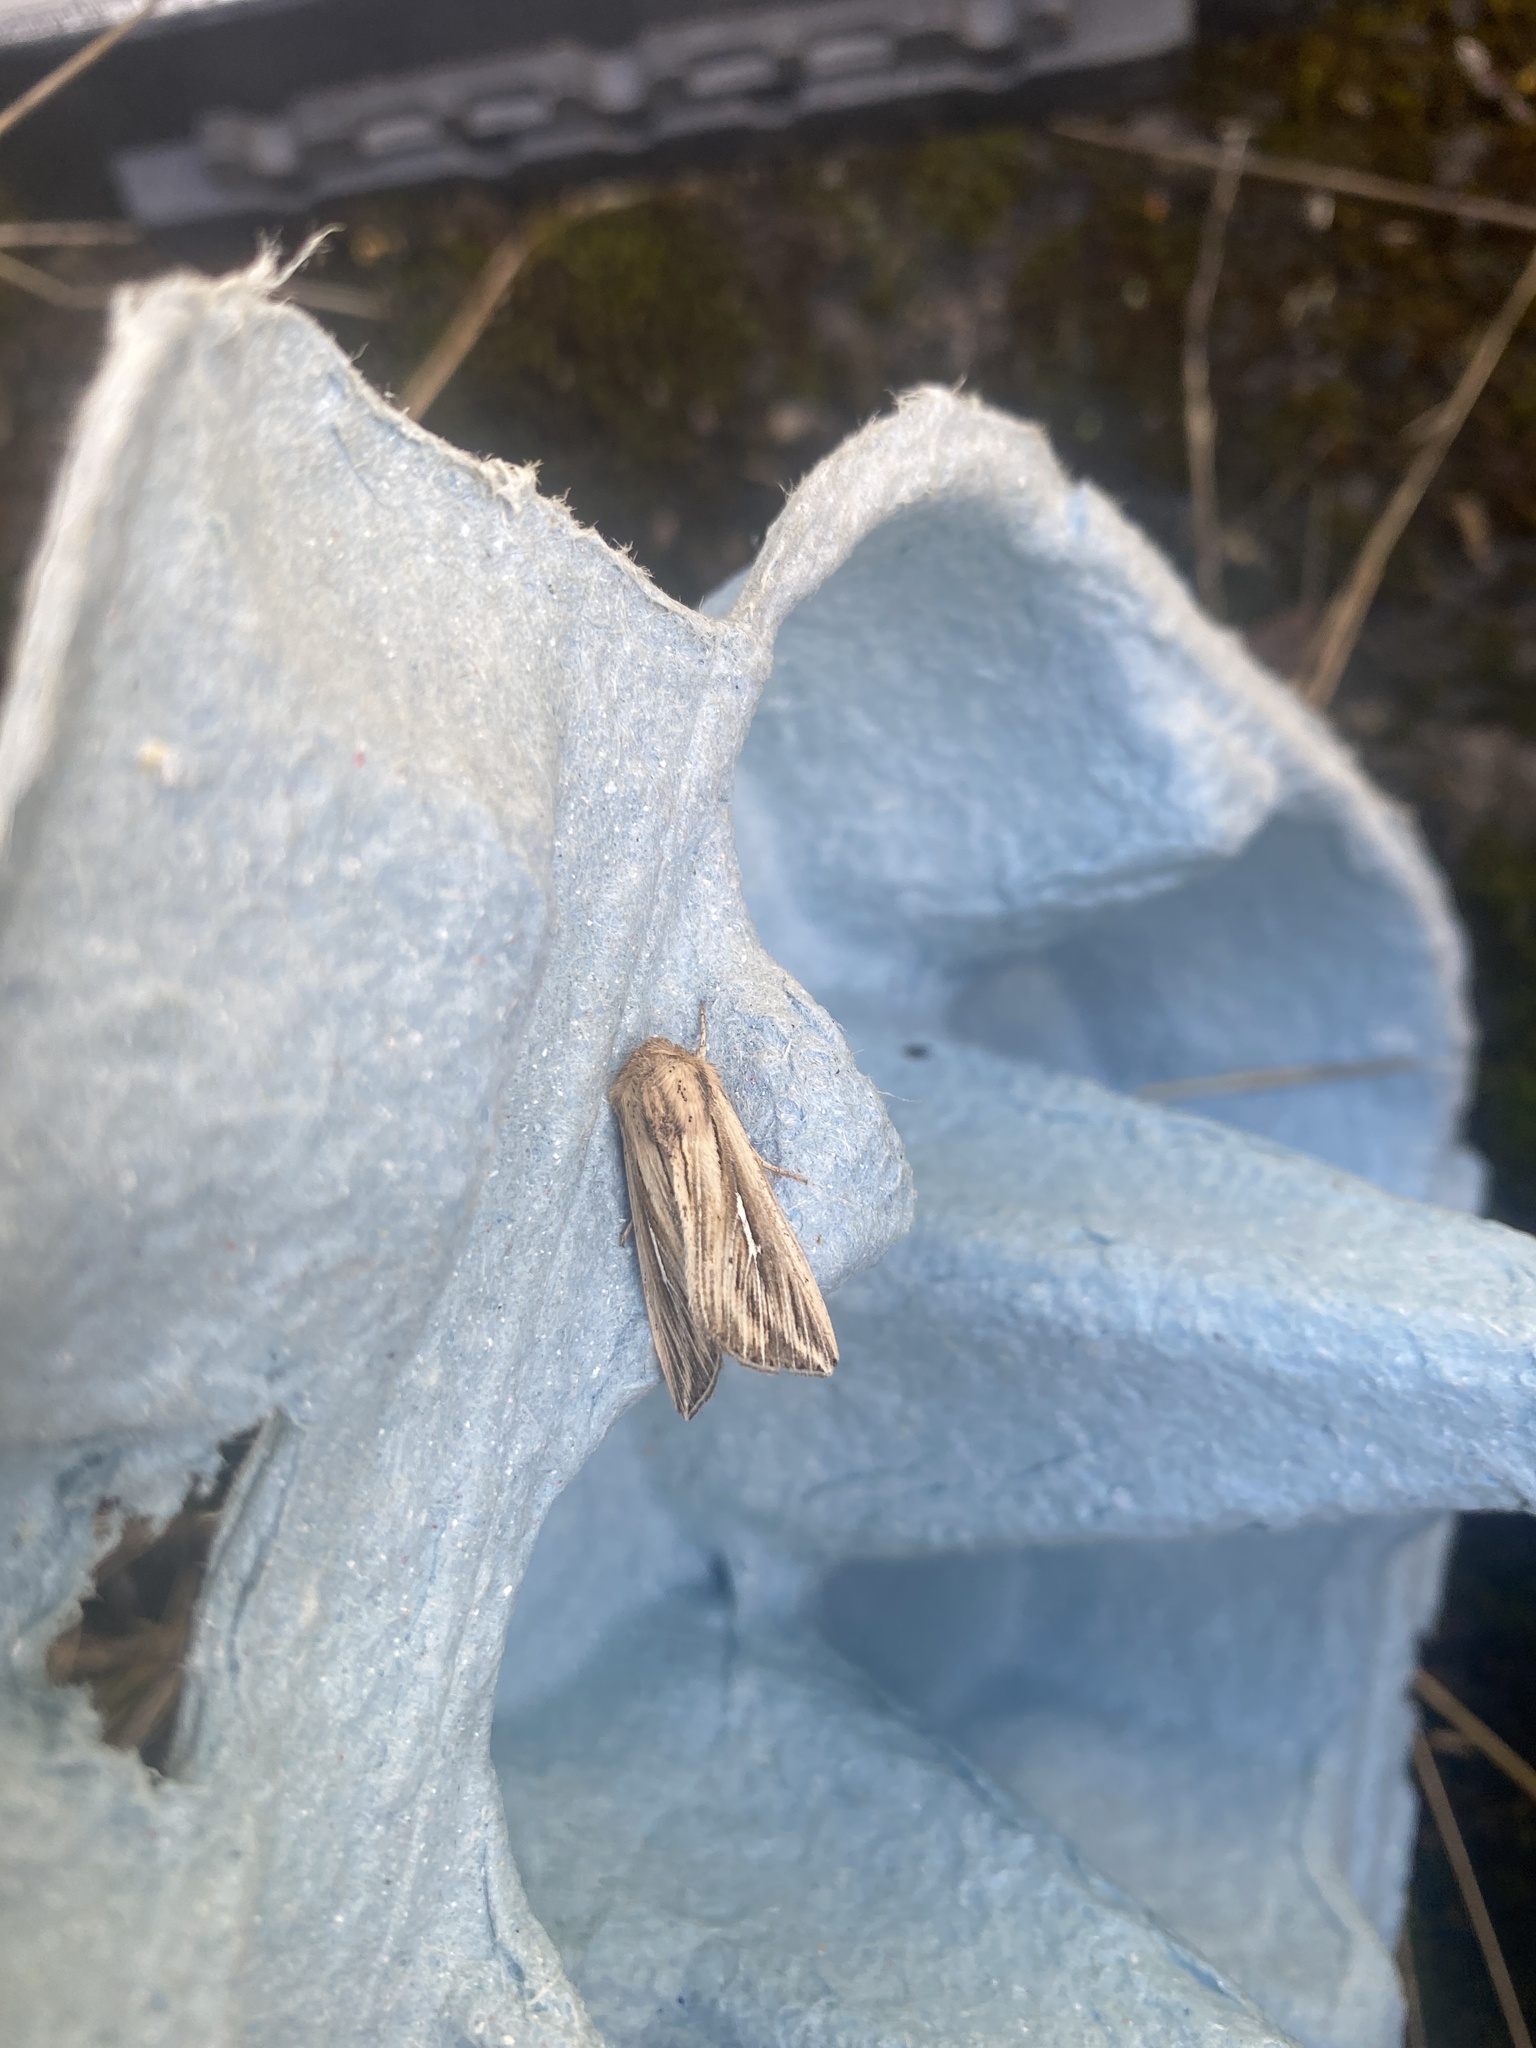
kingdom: Animalia
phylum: Arthropoda
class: Insecta
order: Lepidoptera
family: Noctuidae
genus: Mythimna
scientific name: Mythimna l-album
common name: L-album wainscot
